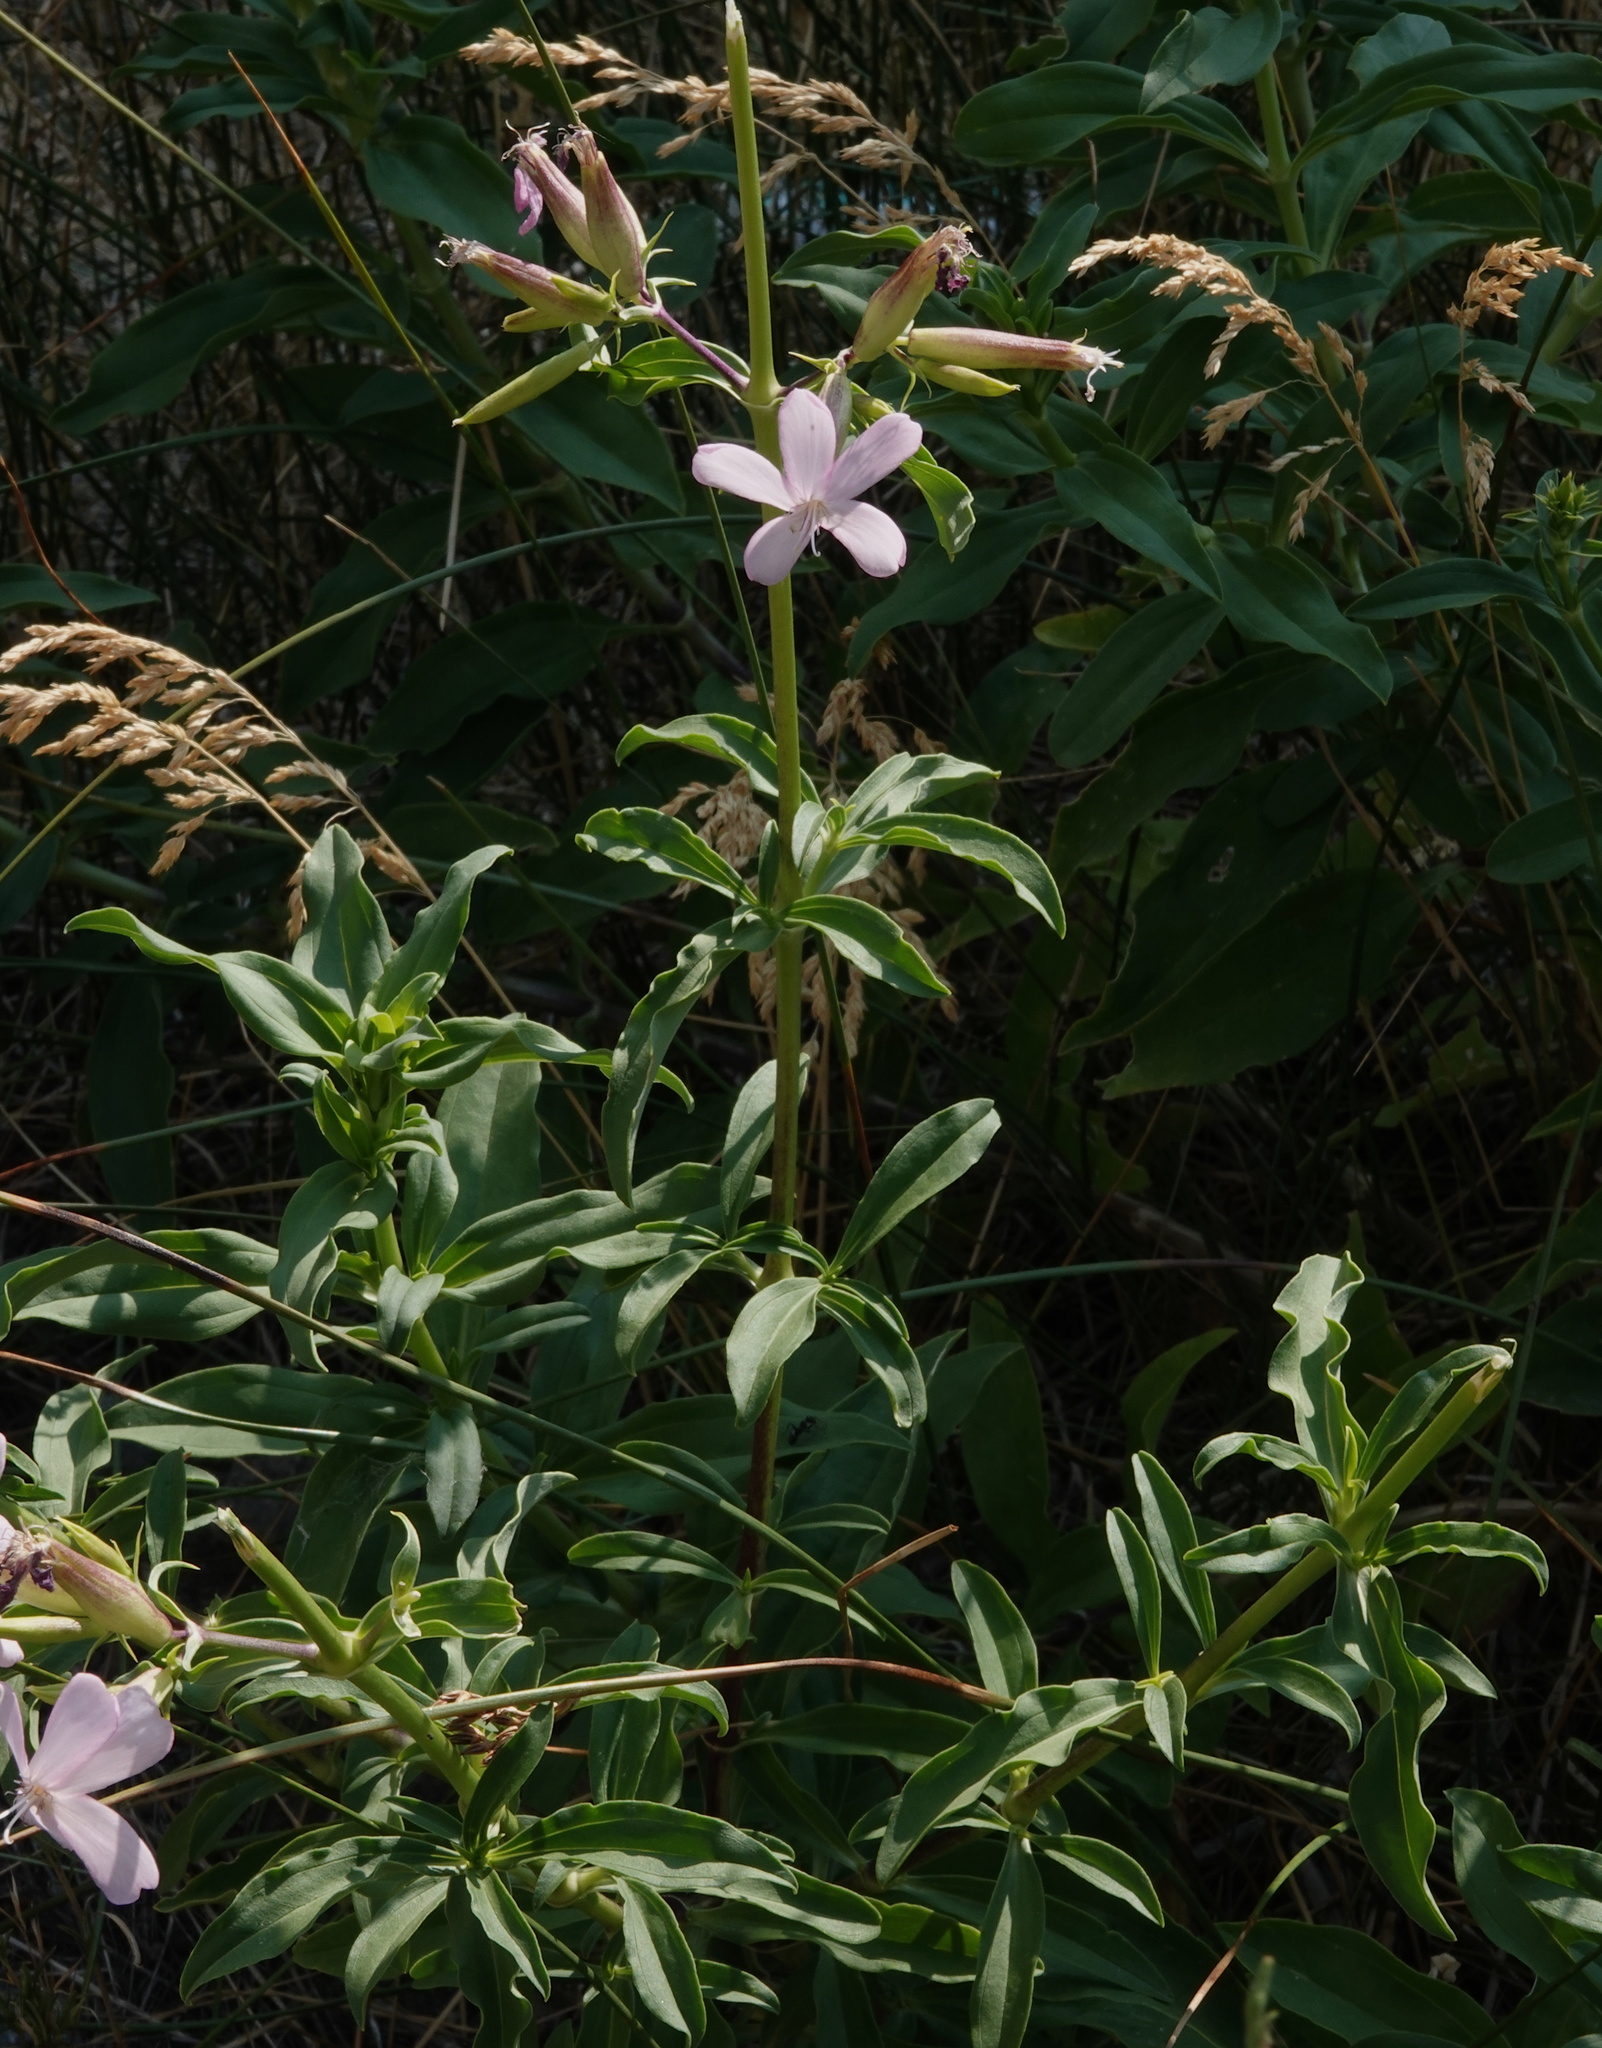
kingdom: Plantae
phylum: Tracheophyta
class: Magnoliopsida
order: Caryophyllales
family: Caryophyllaceae
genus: Saponaria
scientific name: Saponaria officinalis
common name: Soapwort
